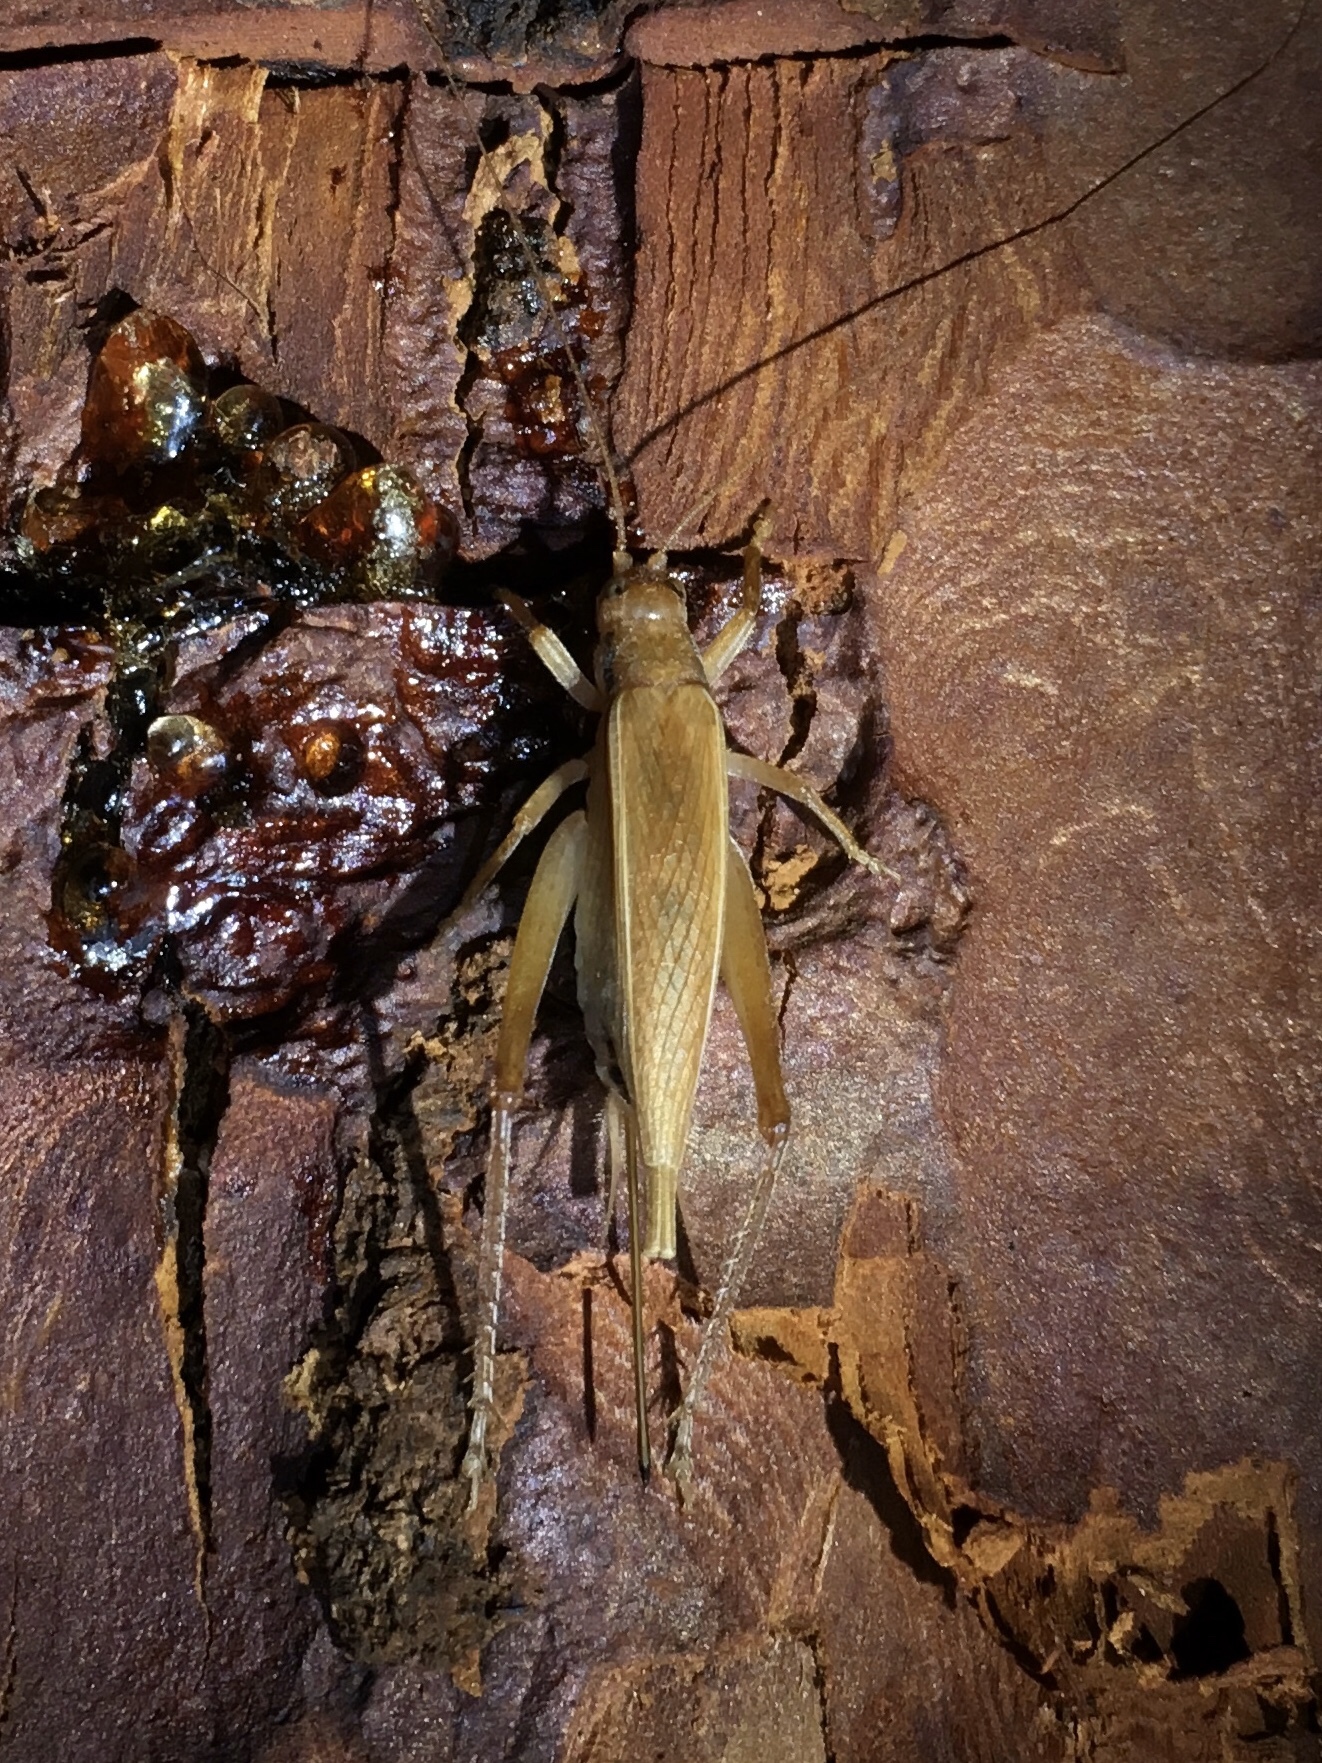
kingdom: Animalia
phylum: Arthropoda
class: Insecta
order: Orthoptera
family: Gryllidae
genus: Hapithus
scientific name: Hapithus oriobates
